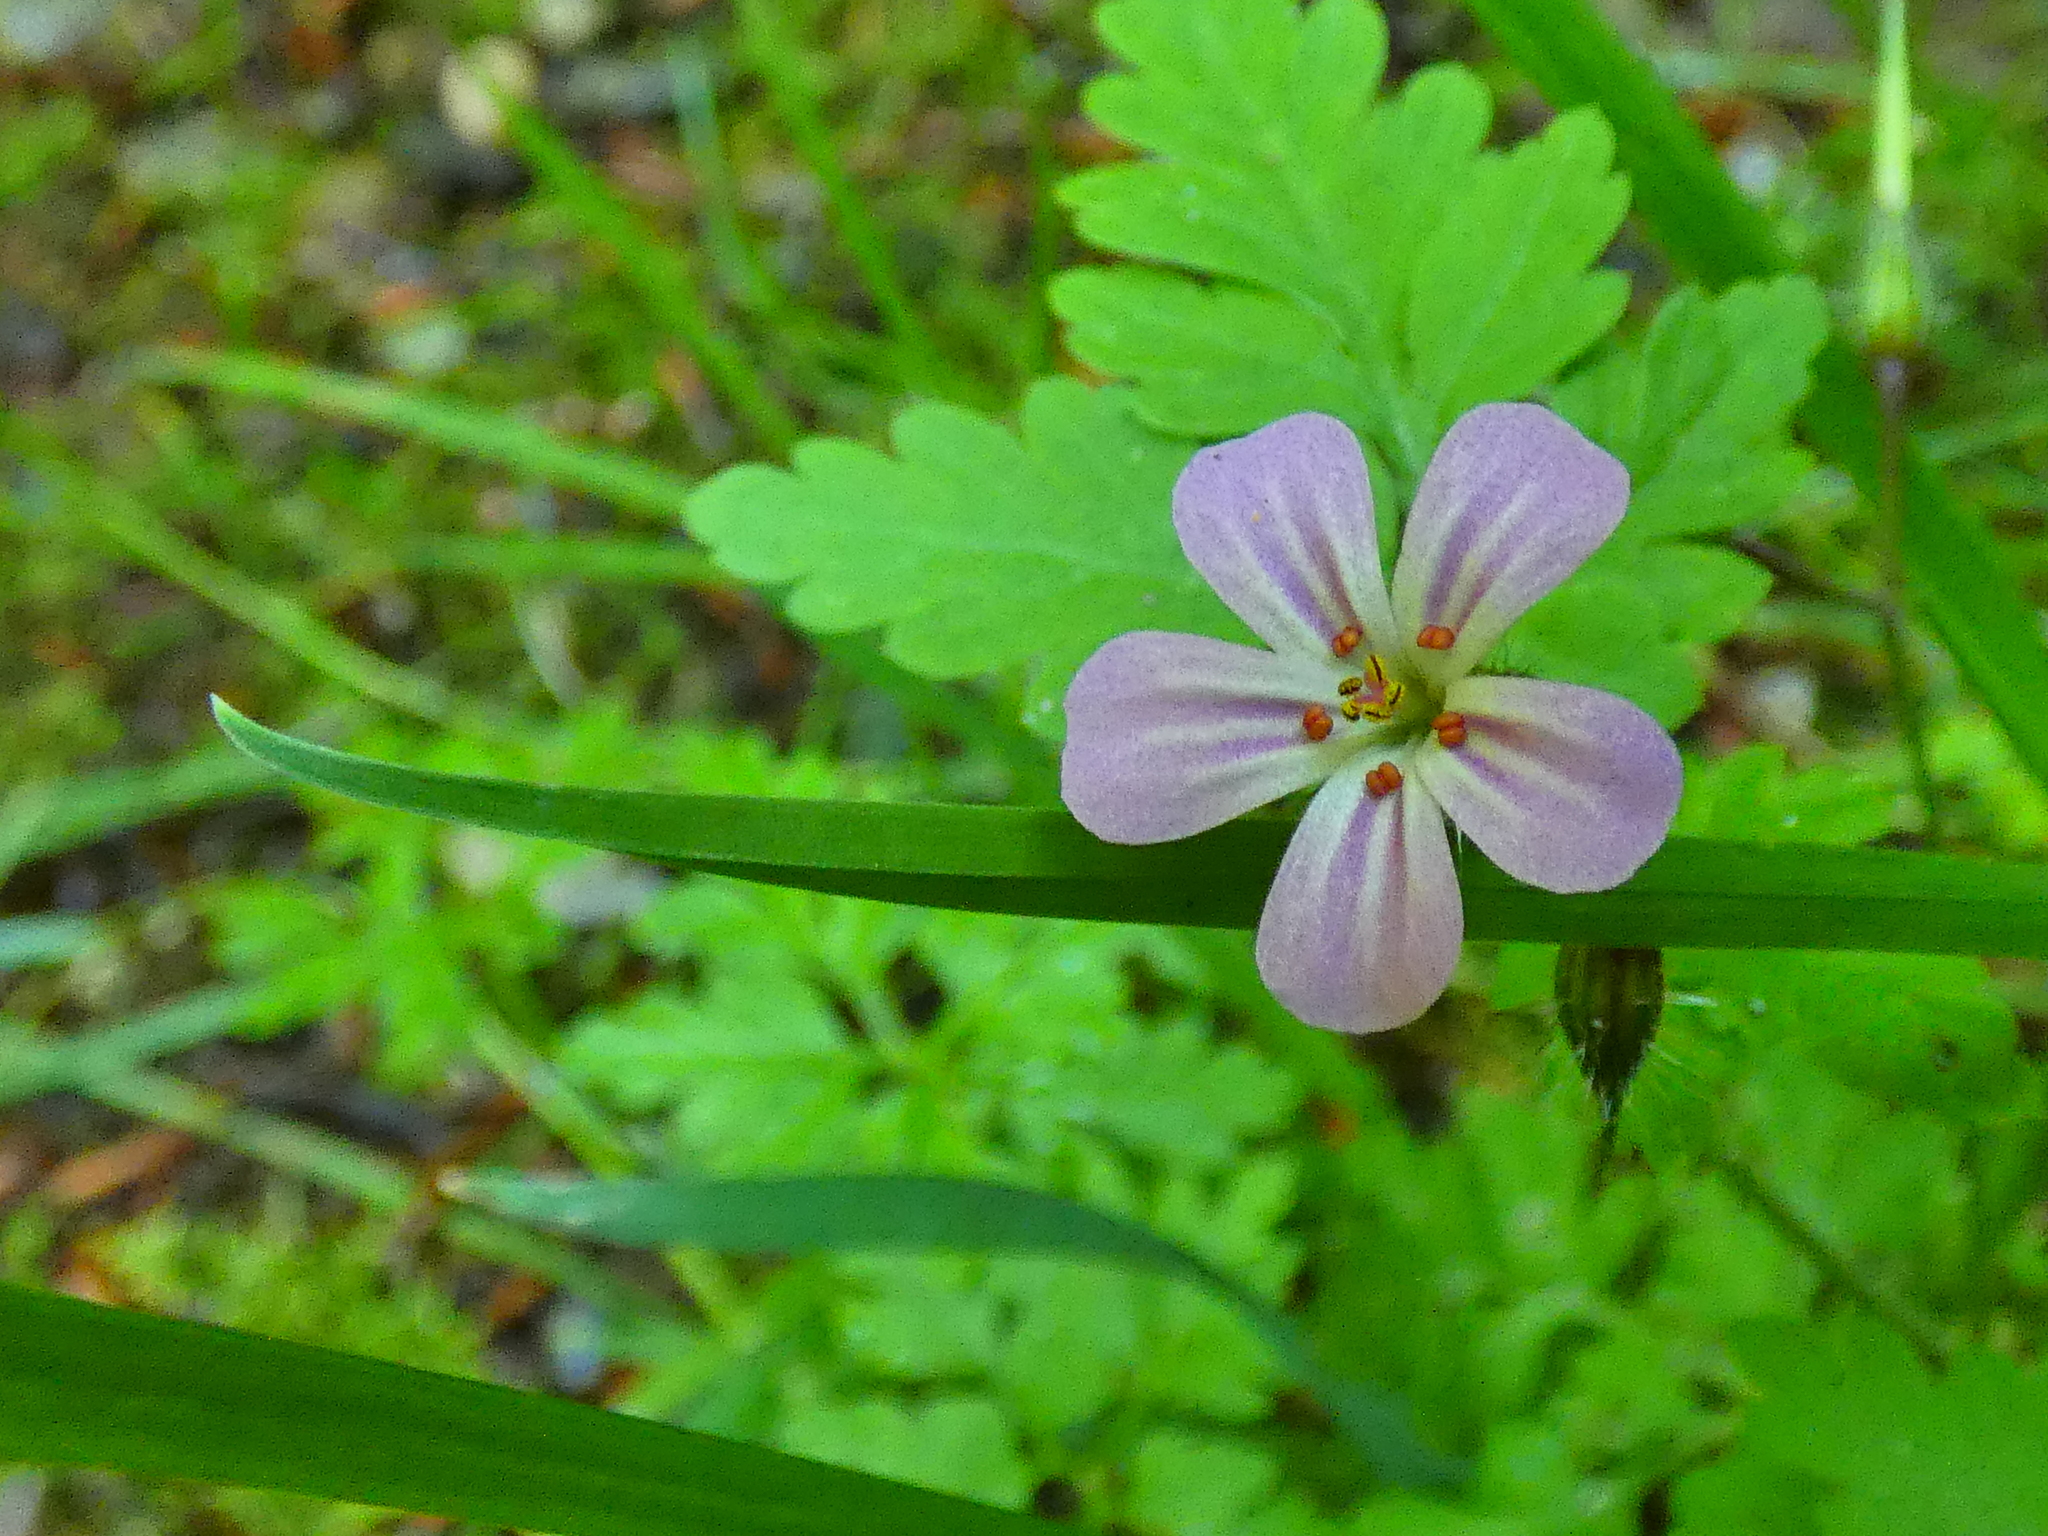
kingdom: Plantae
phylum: Tracheophyta
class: Magnoliopsida
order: Geraniales
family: Geraniaceae
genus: Geranium
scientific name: Geranium robertianum
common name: Herb-robert
